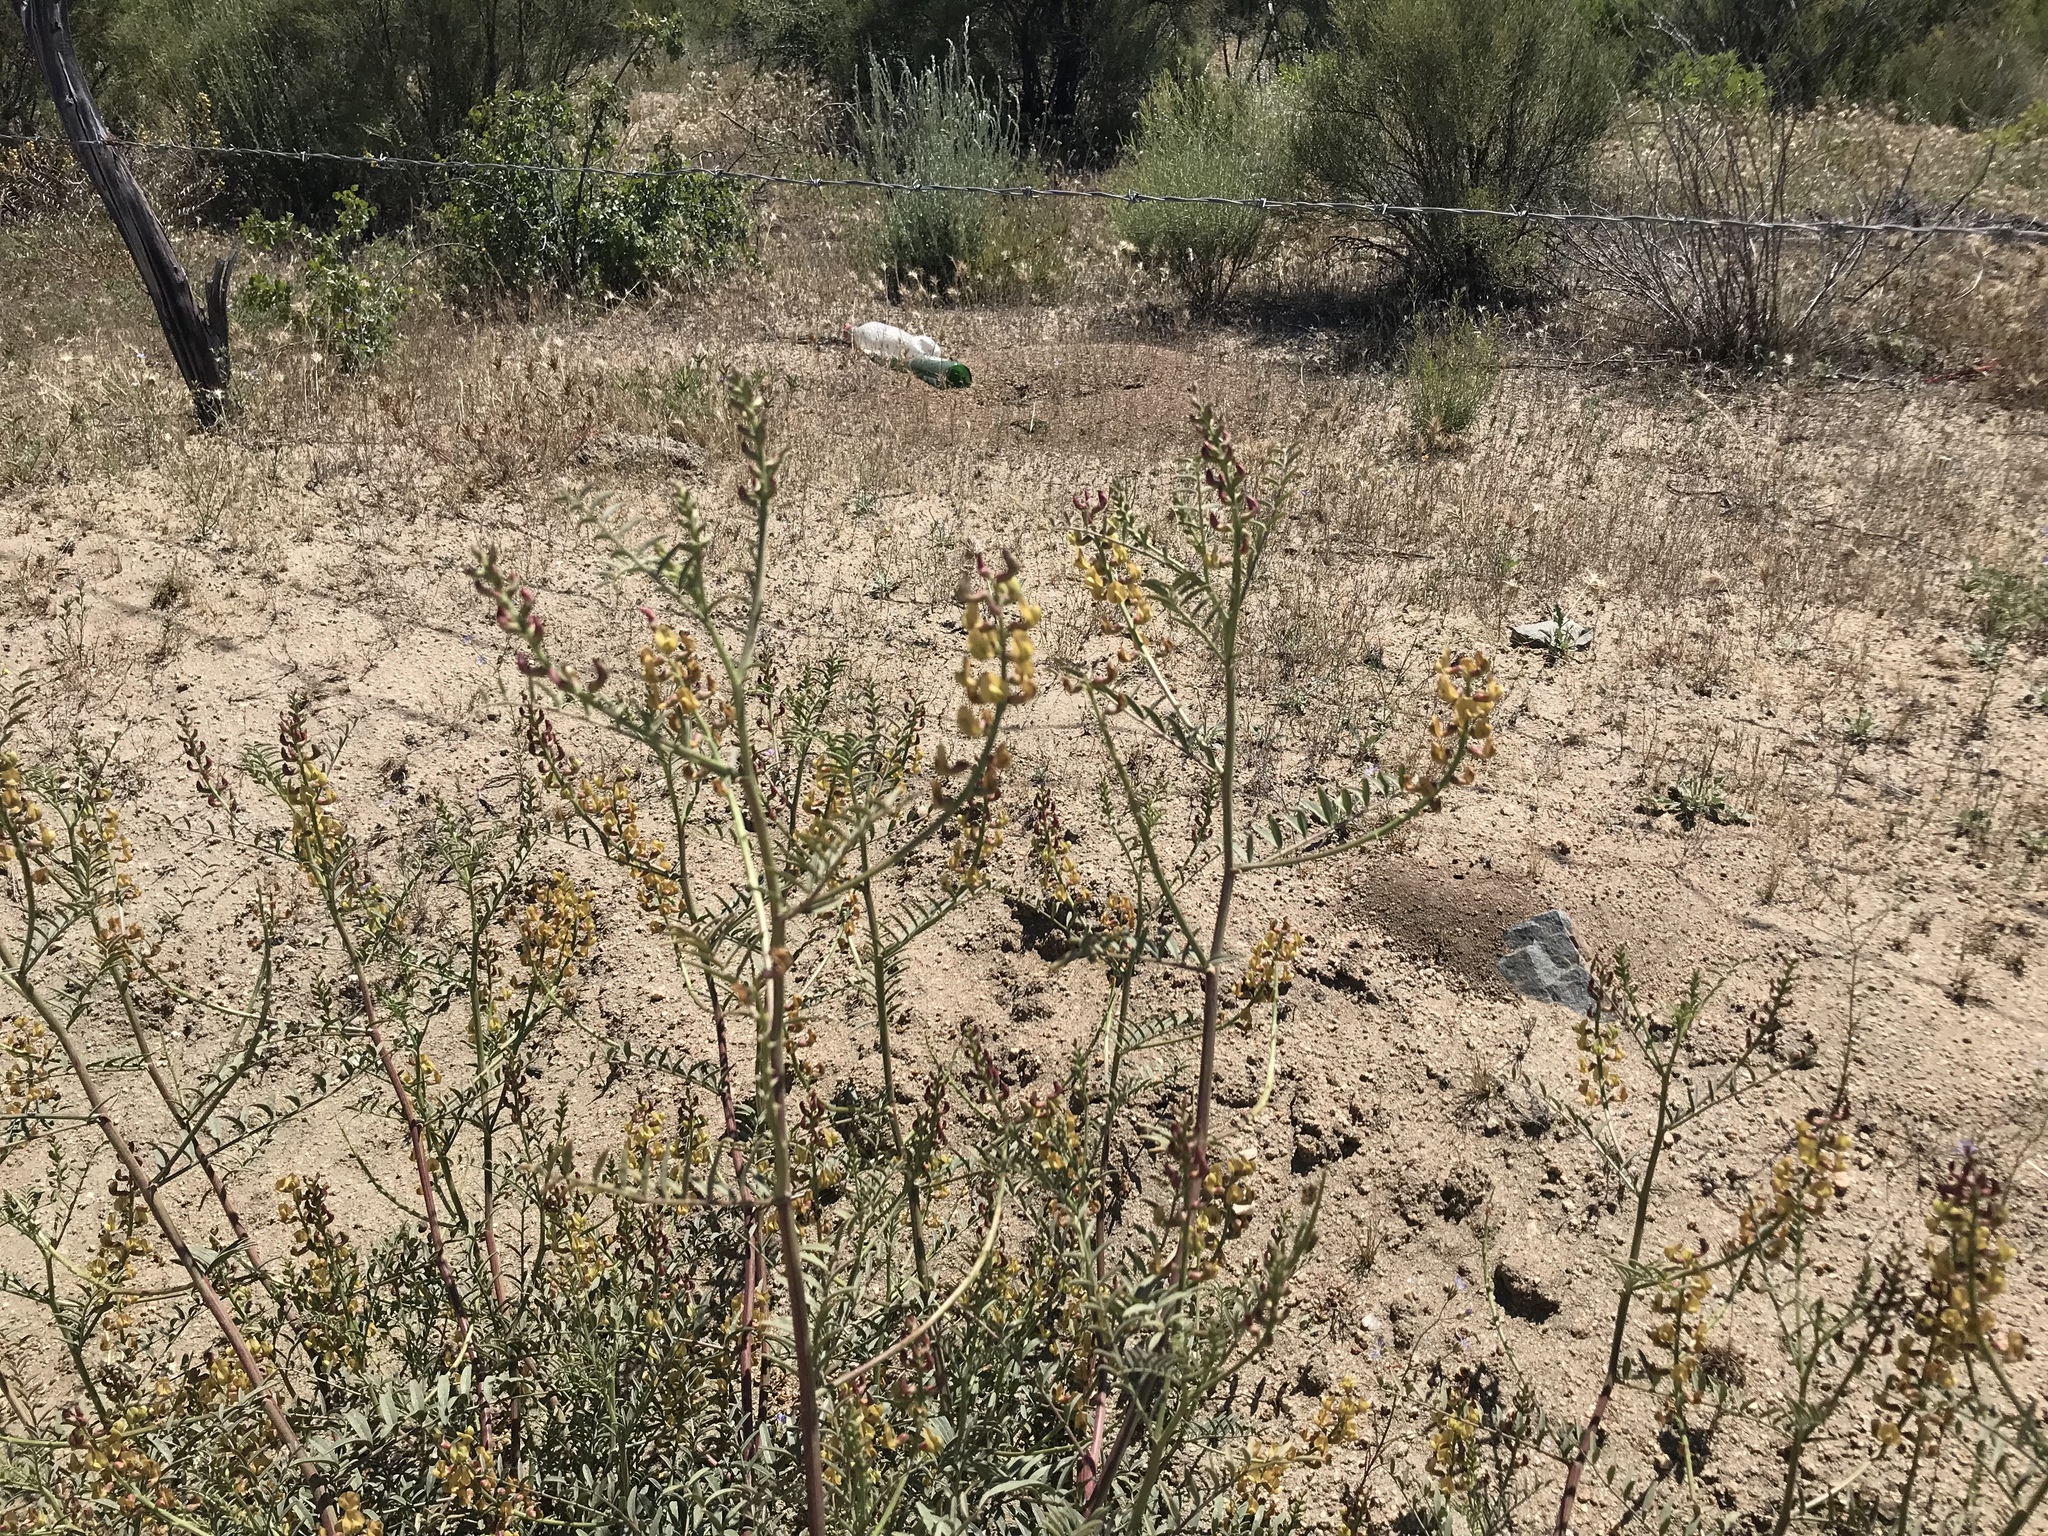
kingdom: Plantae
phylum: Tracheophyta
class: Magnoliopsida
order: Fabales
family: Fabaceae
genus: Astragalus
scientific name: Astragalus douglasii
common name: Jacumba milkvetch
